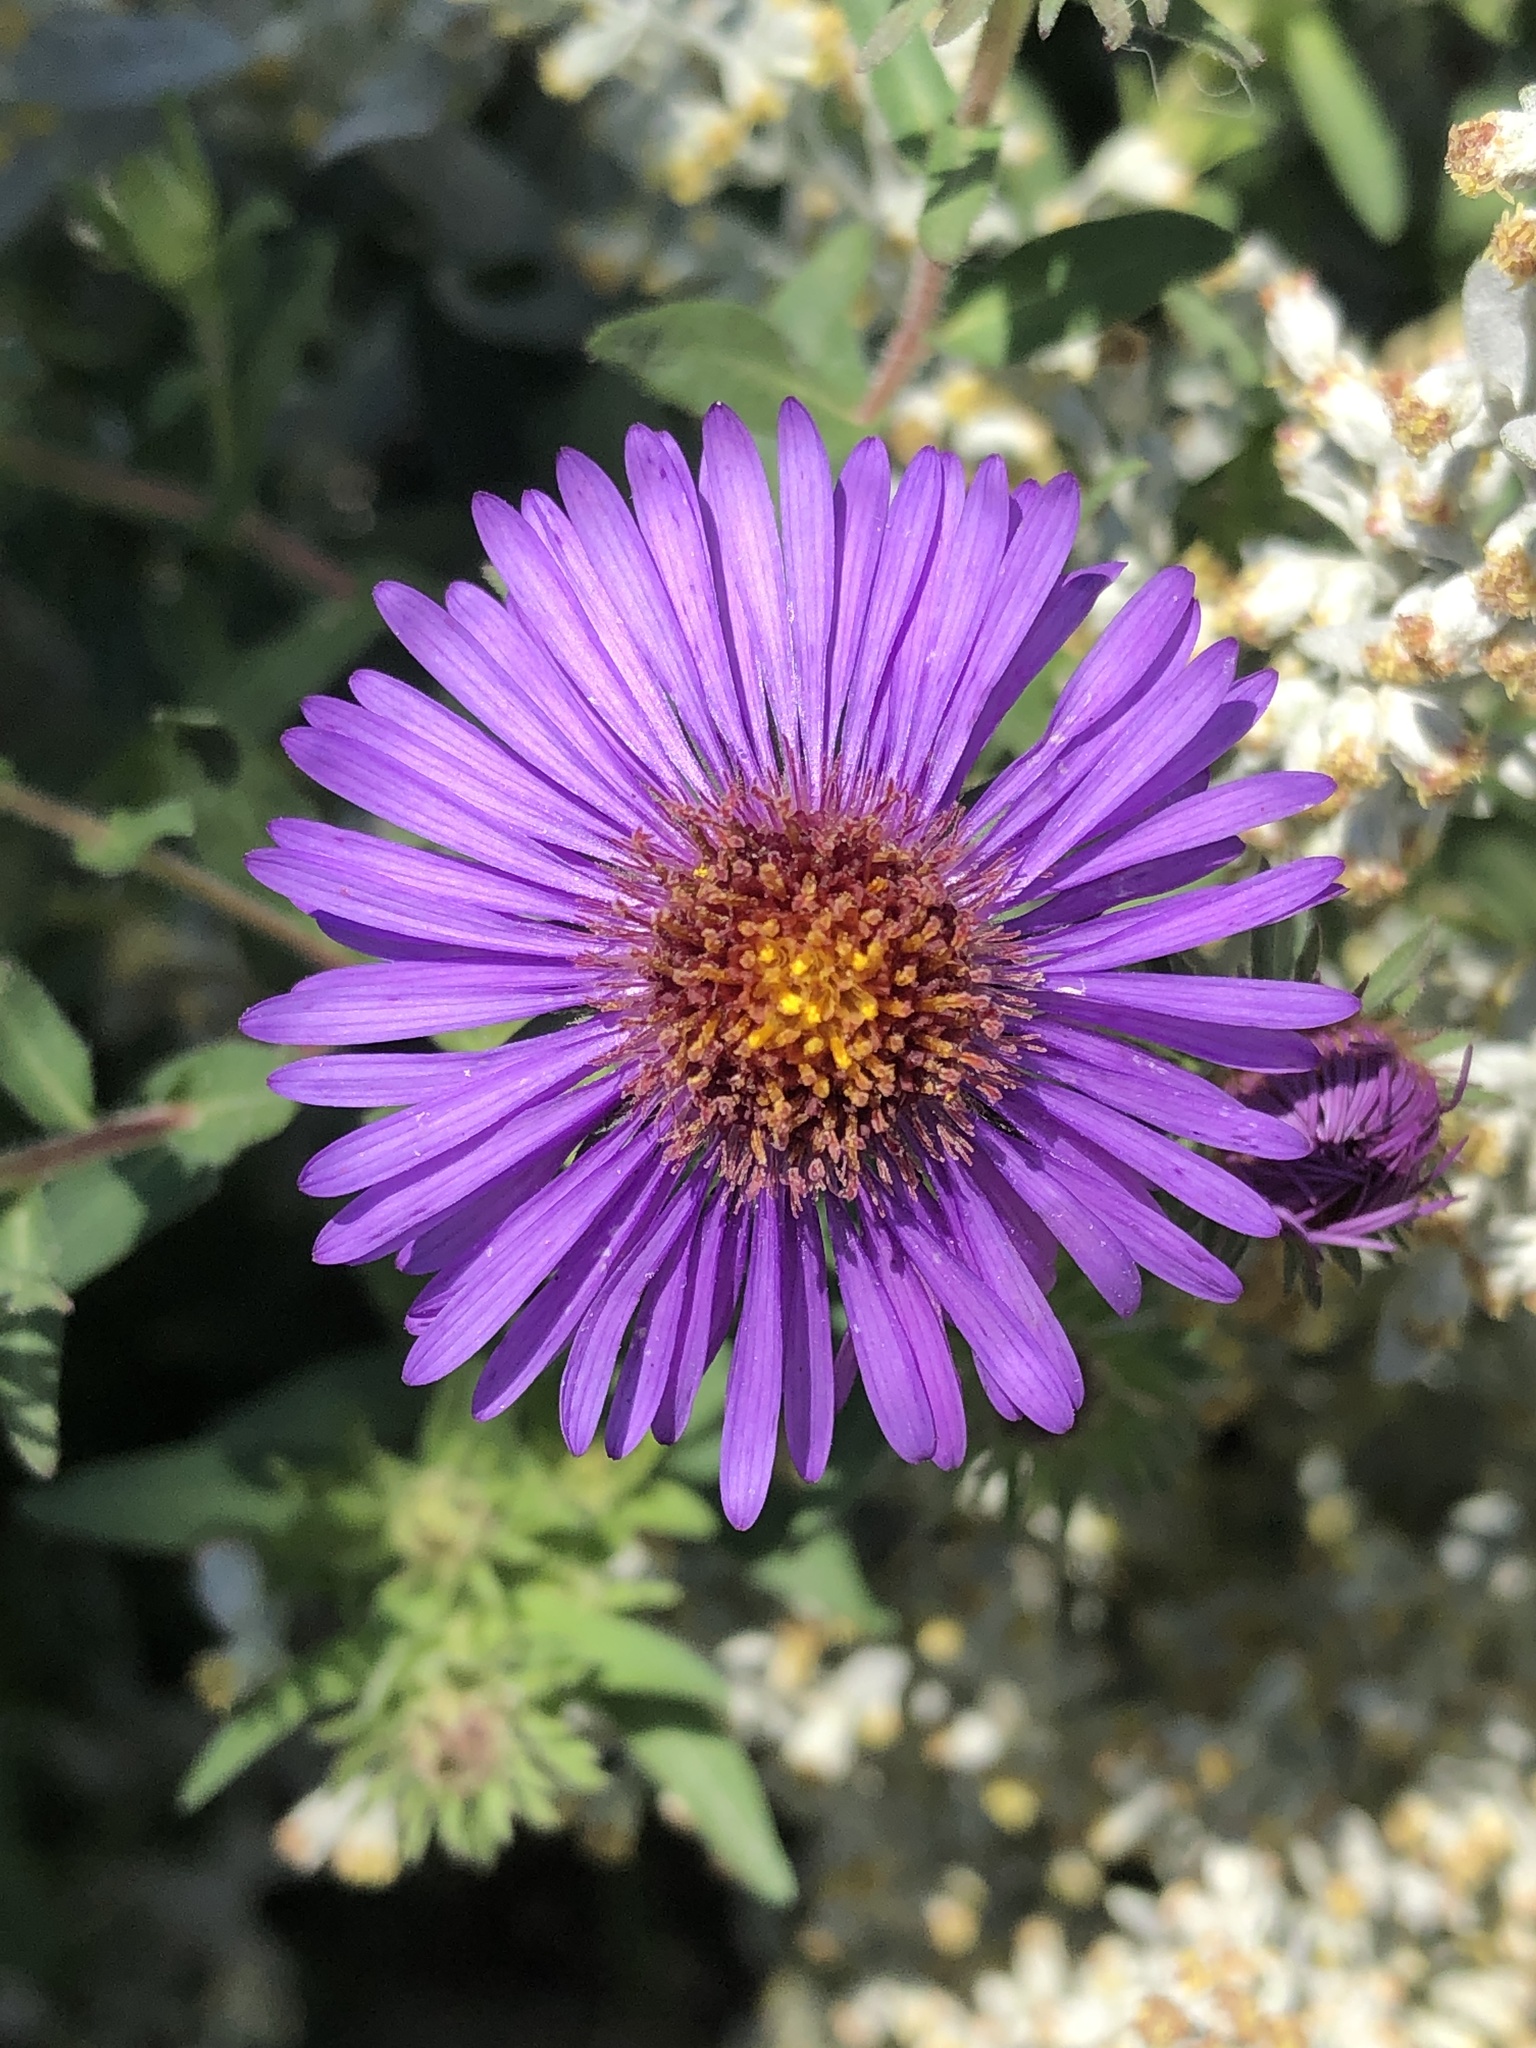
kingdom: Plantae
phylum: Tracheophyta
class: Magnoliopsida
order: Asterales
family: Asteraceae
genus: Symphyotrichum
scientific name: Symphyotrichum novae-angliae
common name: Michaelmas daisy
